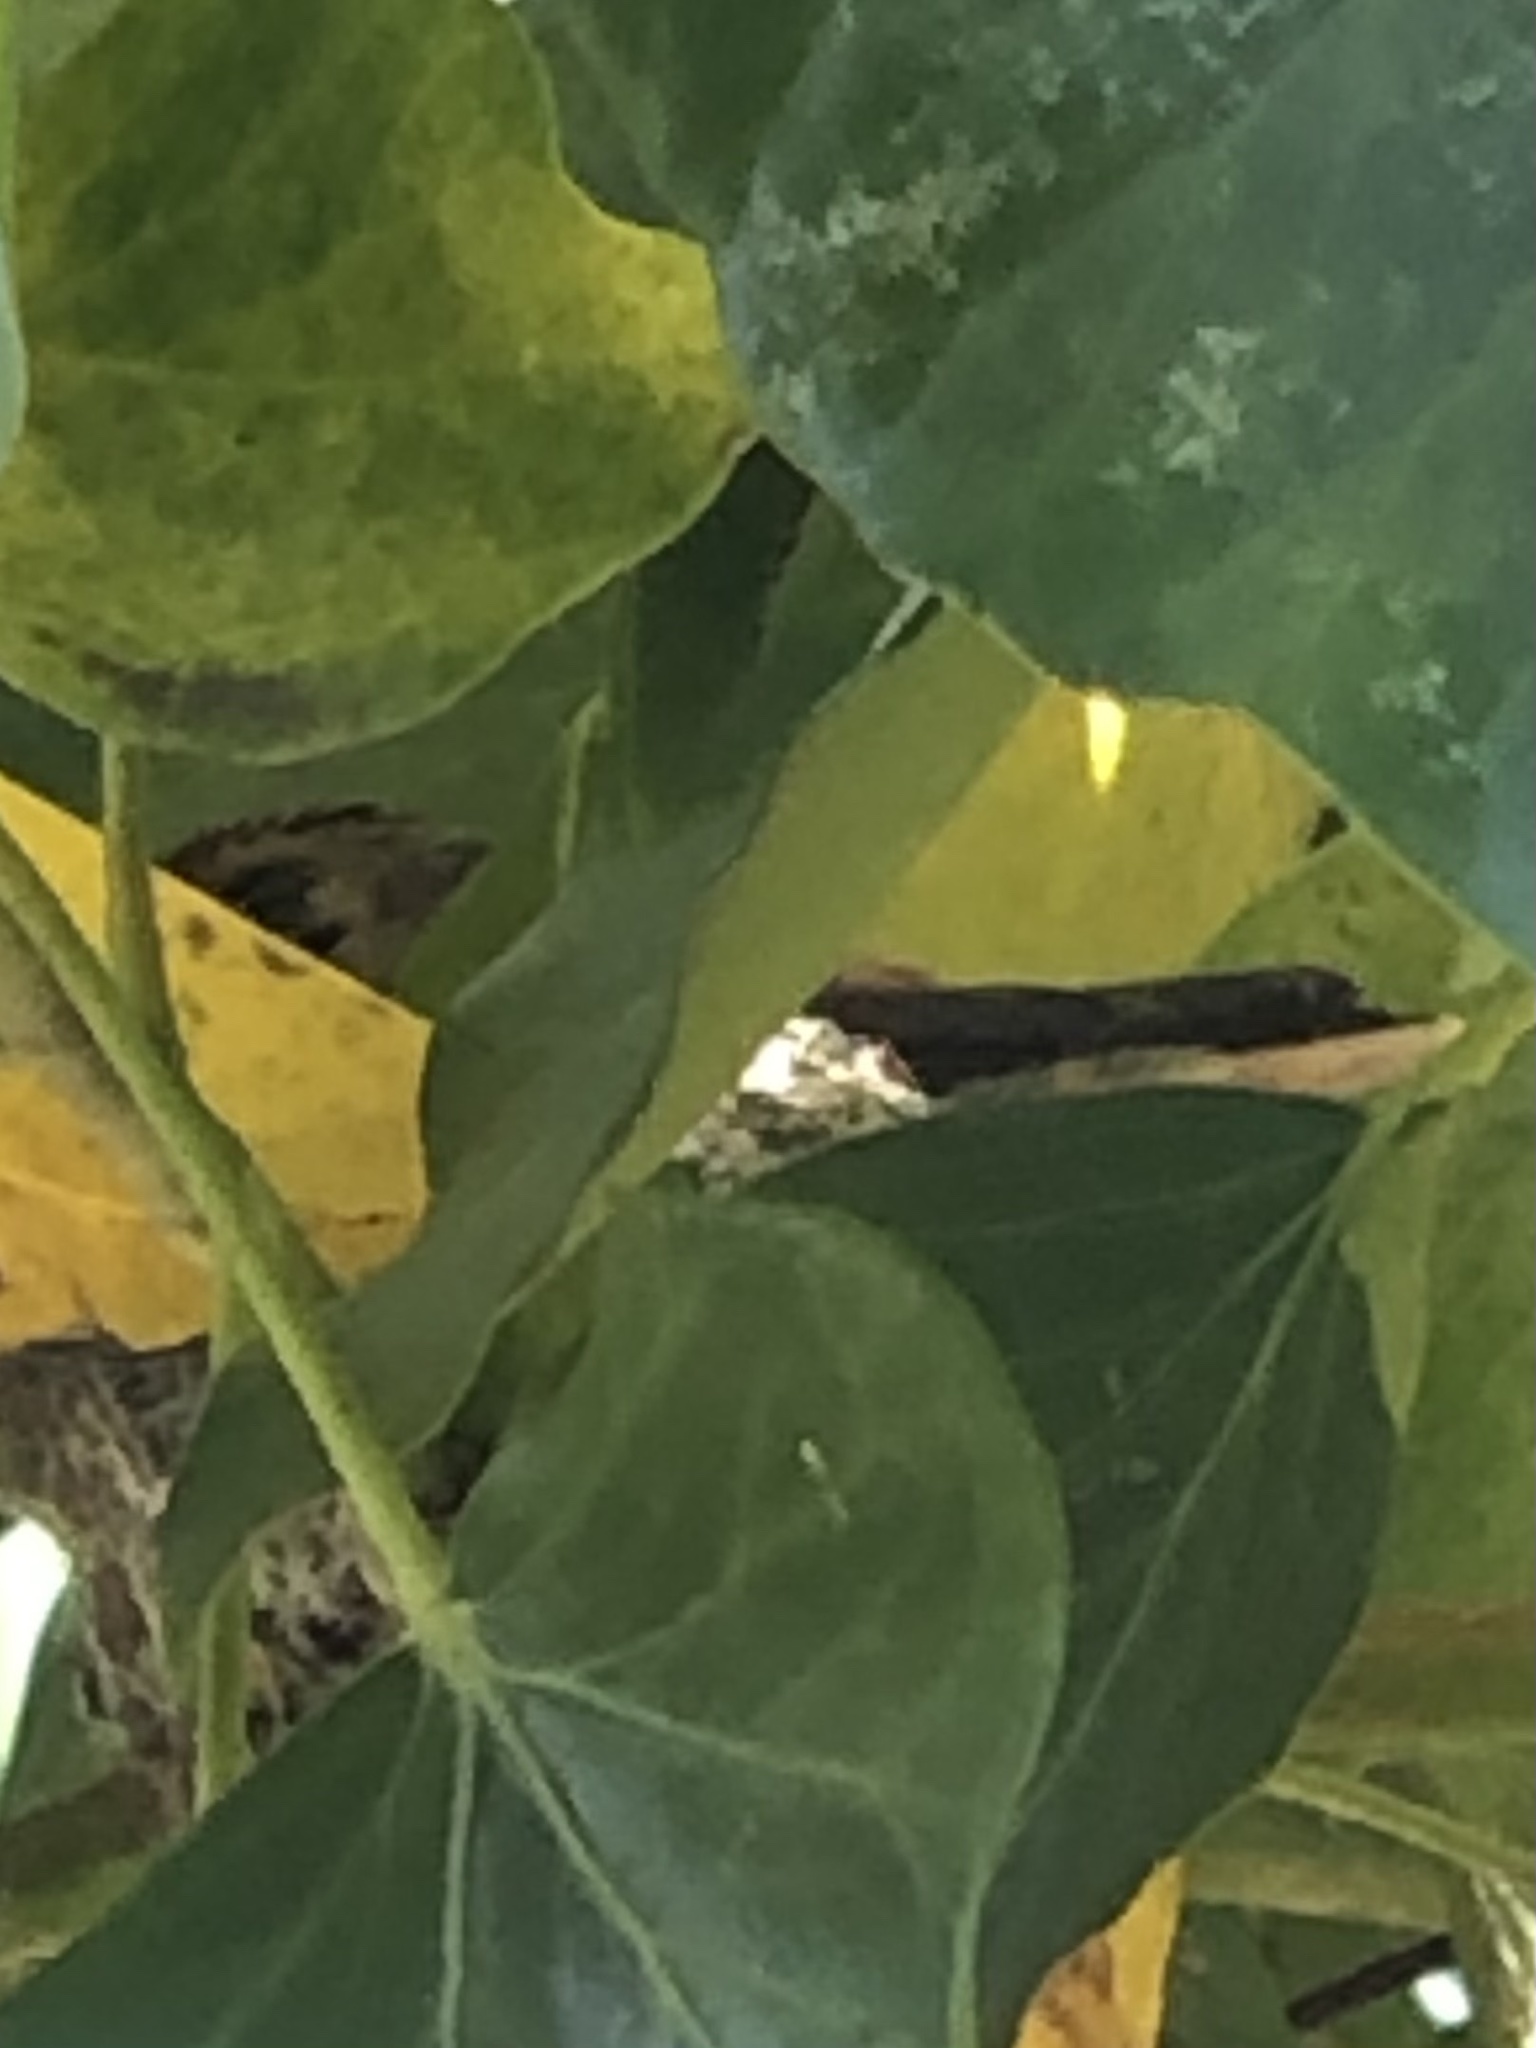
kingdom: Animalia
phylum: Chordata
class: Aves
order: Apodiformes
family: Trochilidae
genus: Selasphorus
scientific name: Selasphorus sasin
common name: Allen's hummingbird
